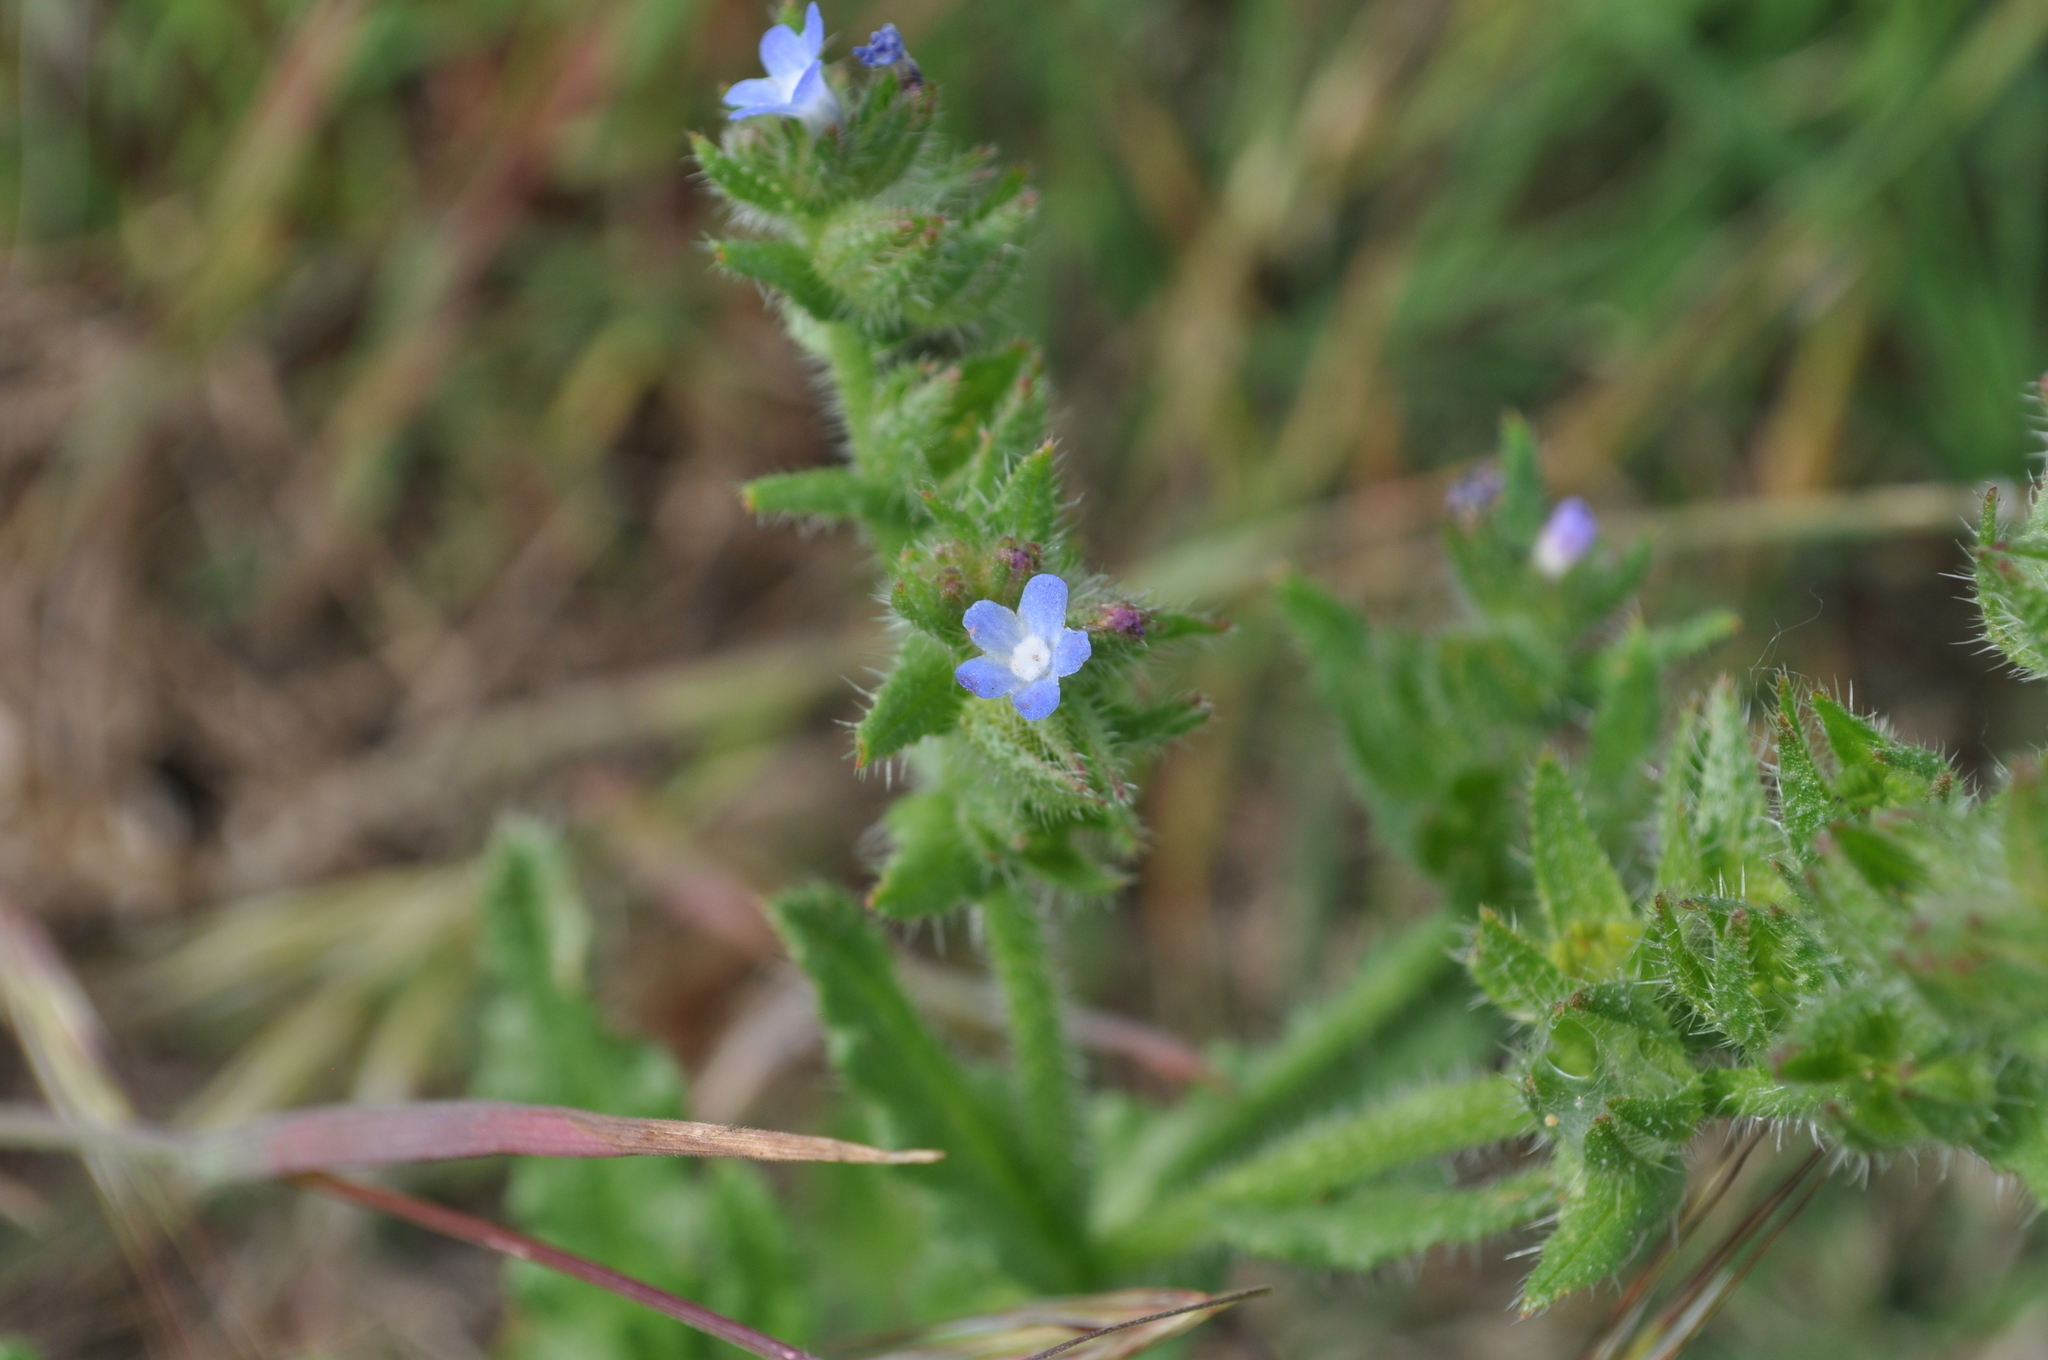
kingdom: Plantae
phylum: Tracheophyta
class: Magnoliopsida
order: Boraginales
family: Boraginaceae
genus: Lycopsis
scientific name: Lycopsis arvensis
